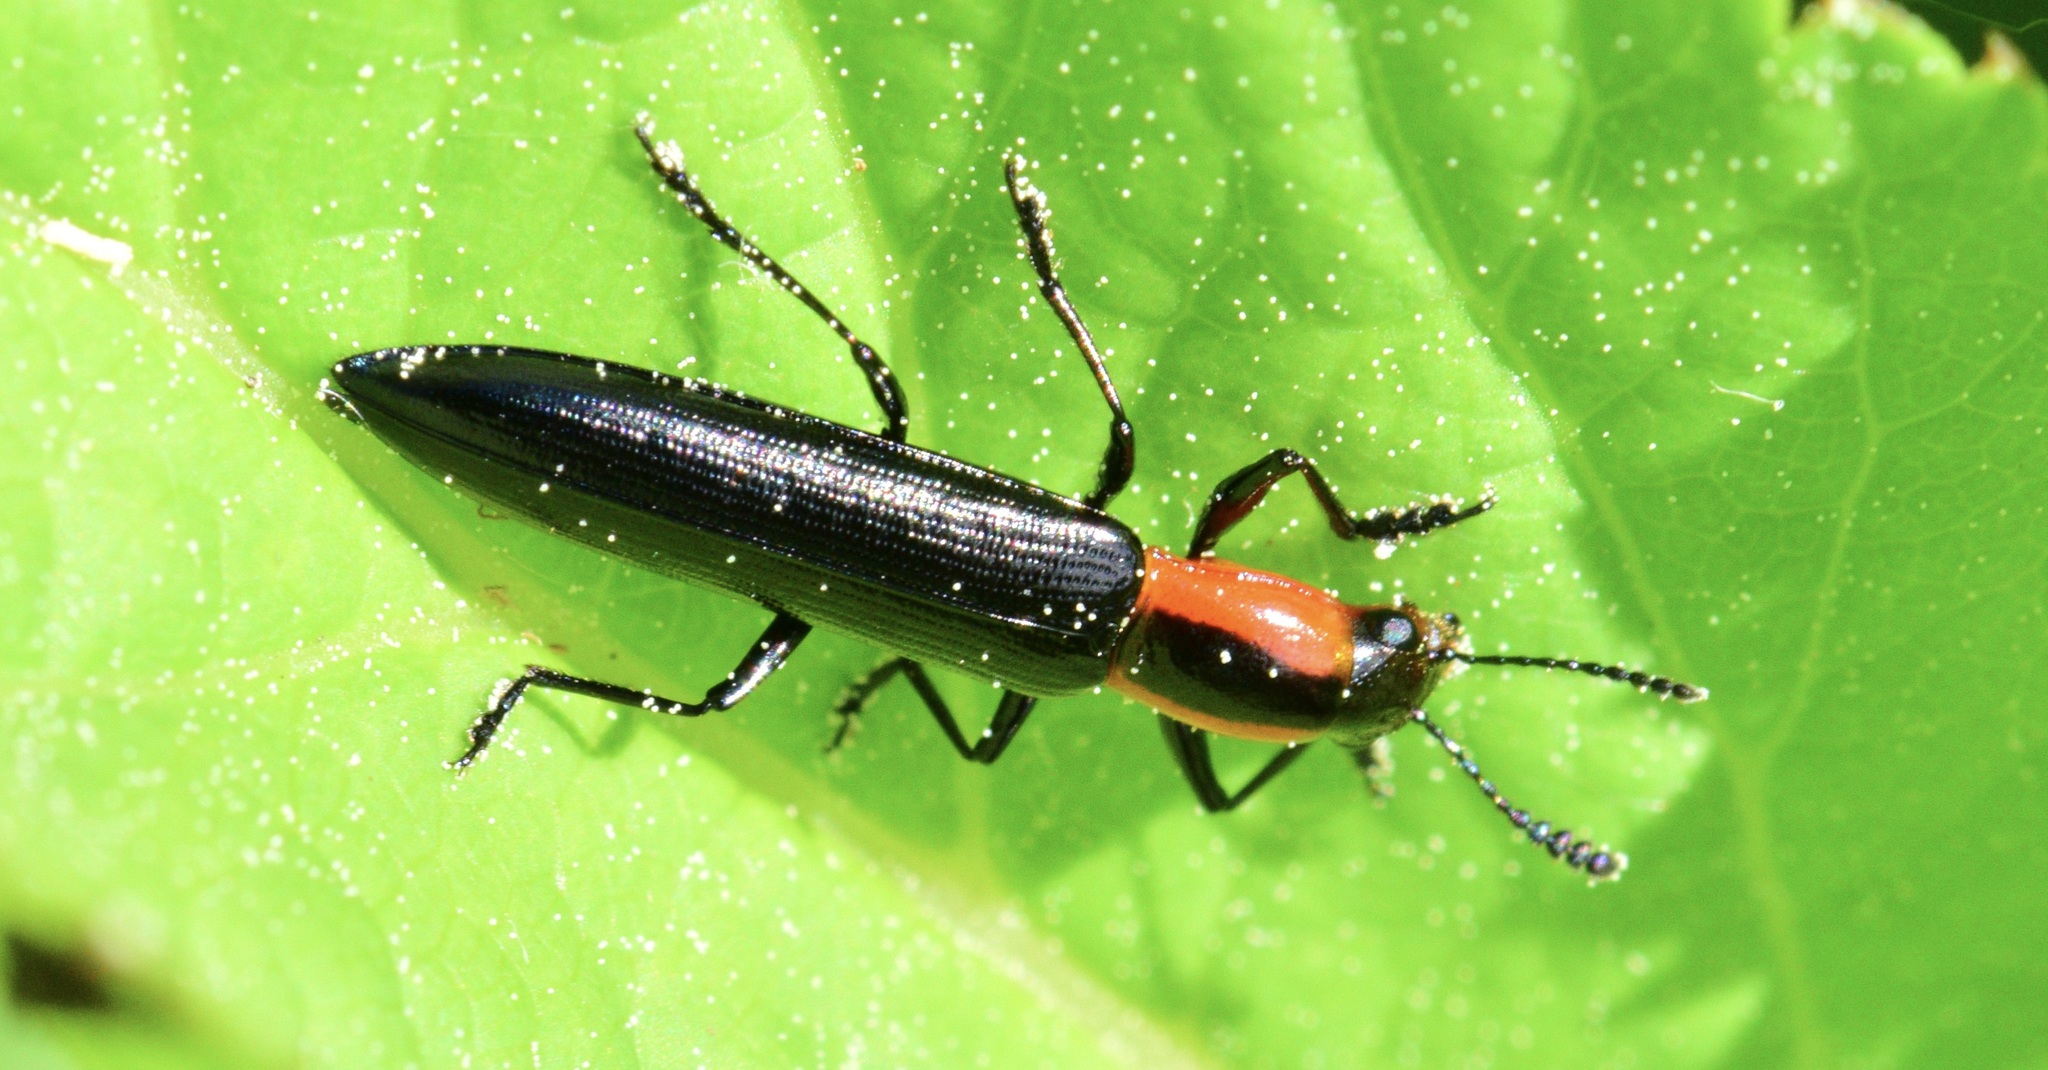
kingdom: Animalia
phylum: Arthropoda
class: Insecta
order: Coleoptera
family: Erotylidae
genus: Acropteroxys
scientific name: Acropteroxys gracilis
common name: Slender lizard beetle
